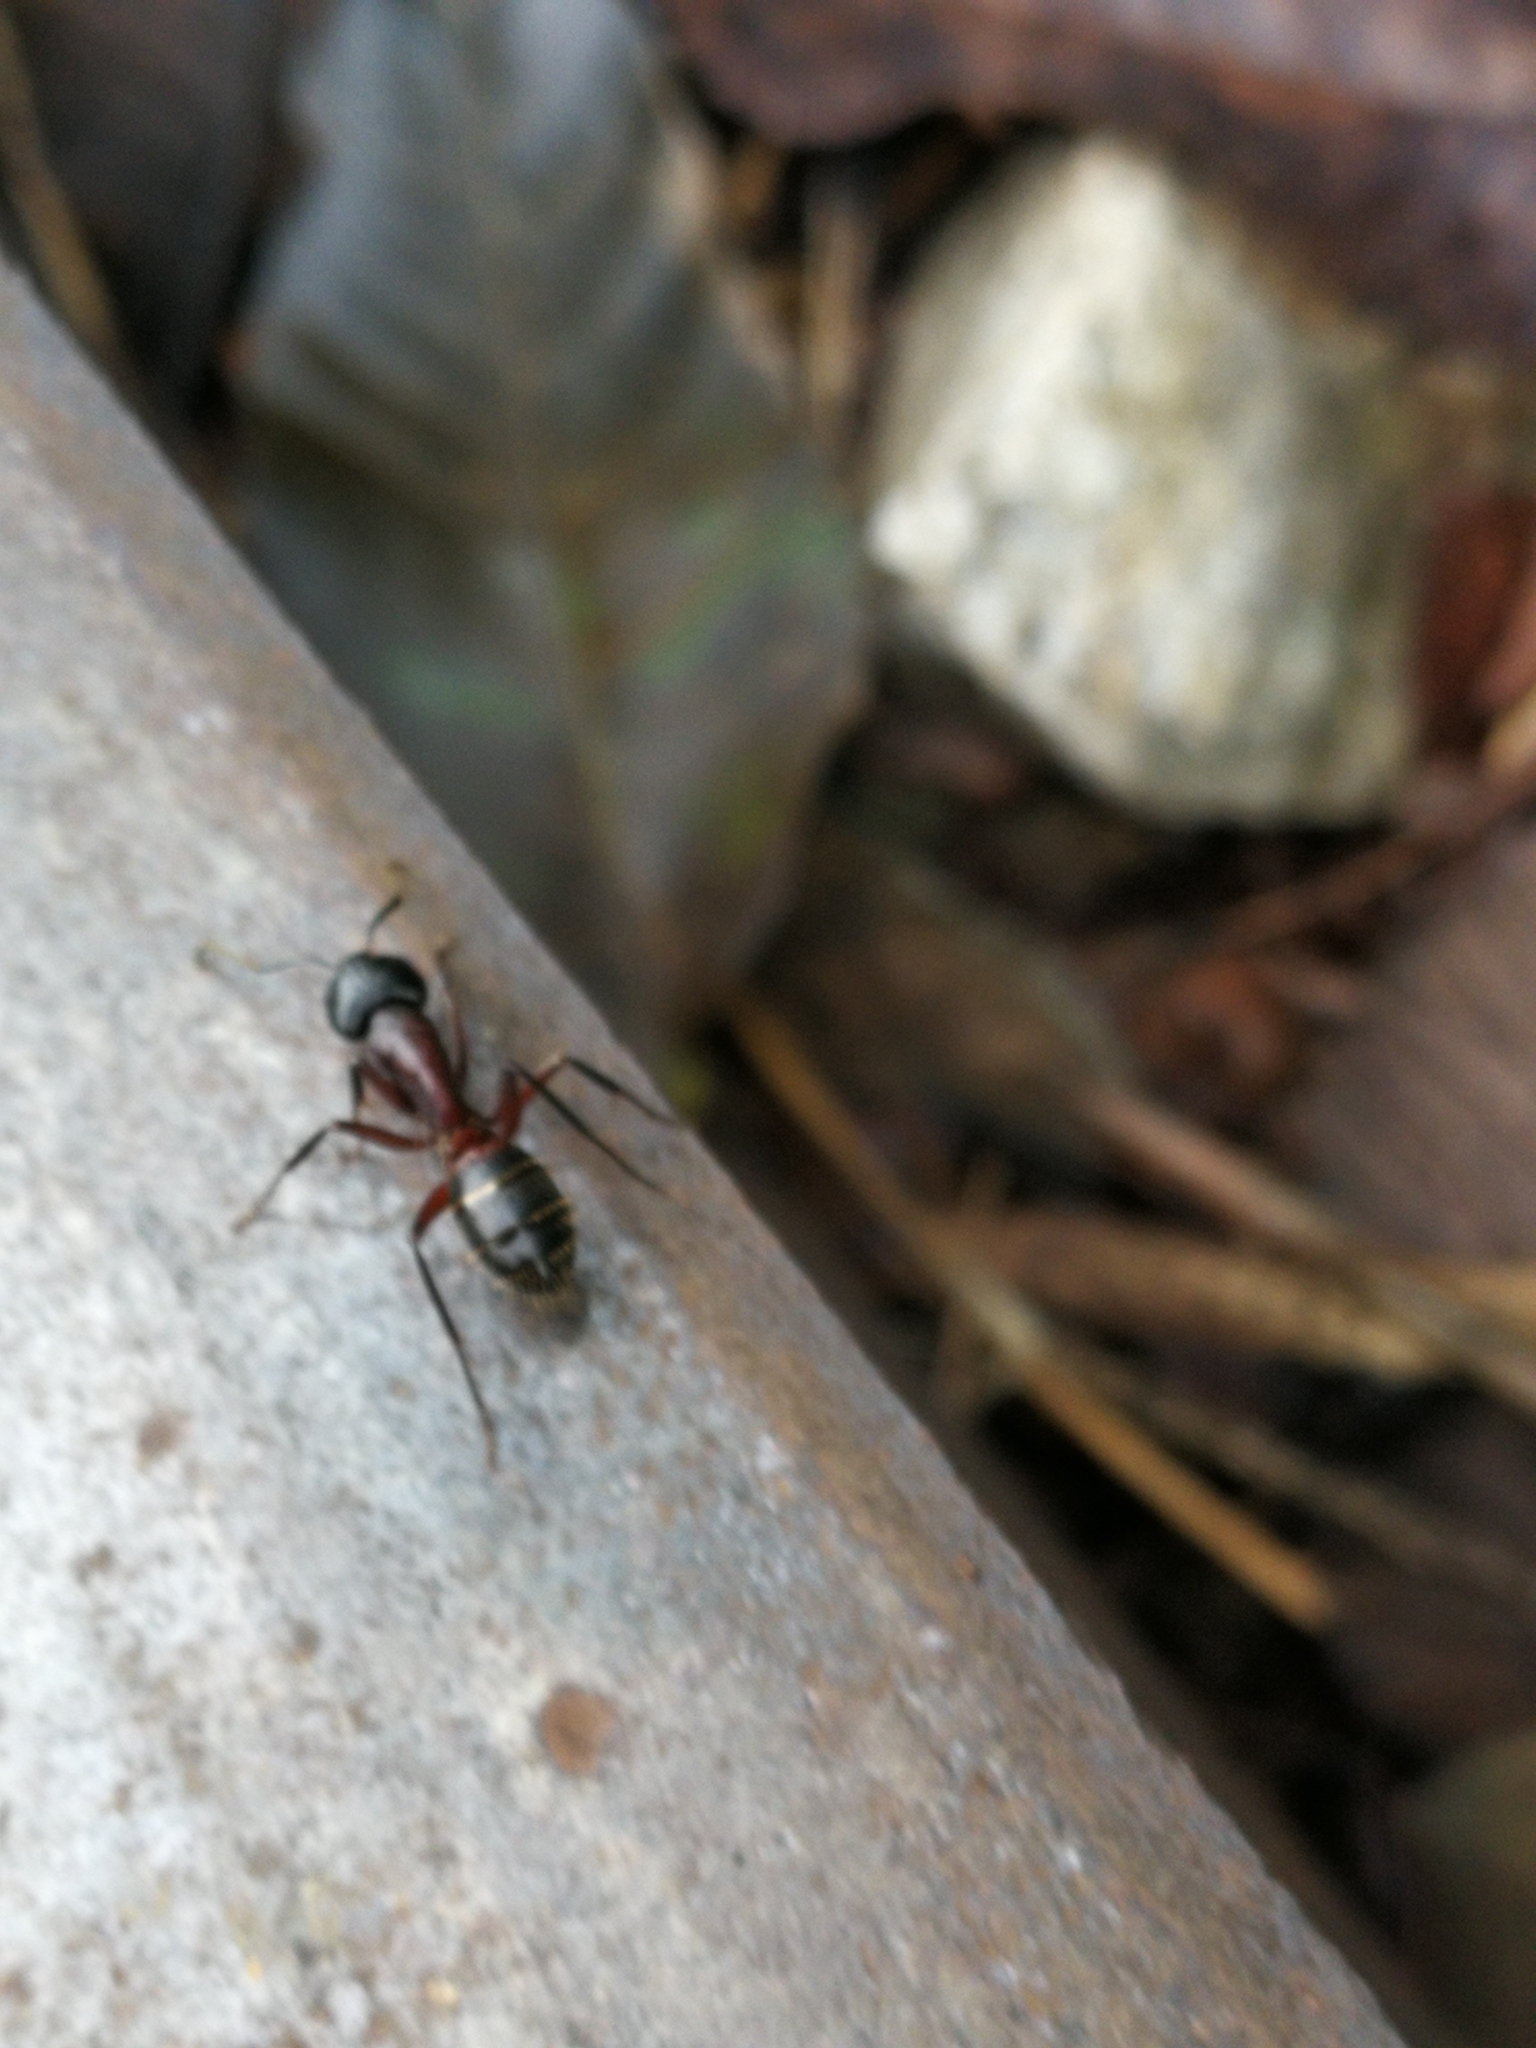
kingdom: Animalia
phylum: Arthropoda
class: Insecta
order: Hymenoptera
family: Formicidae
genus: Camponotus
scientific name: Camponotus ligniperdus
